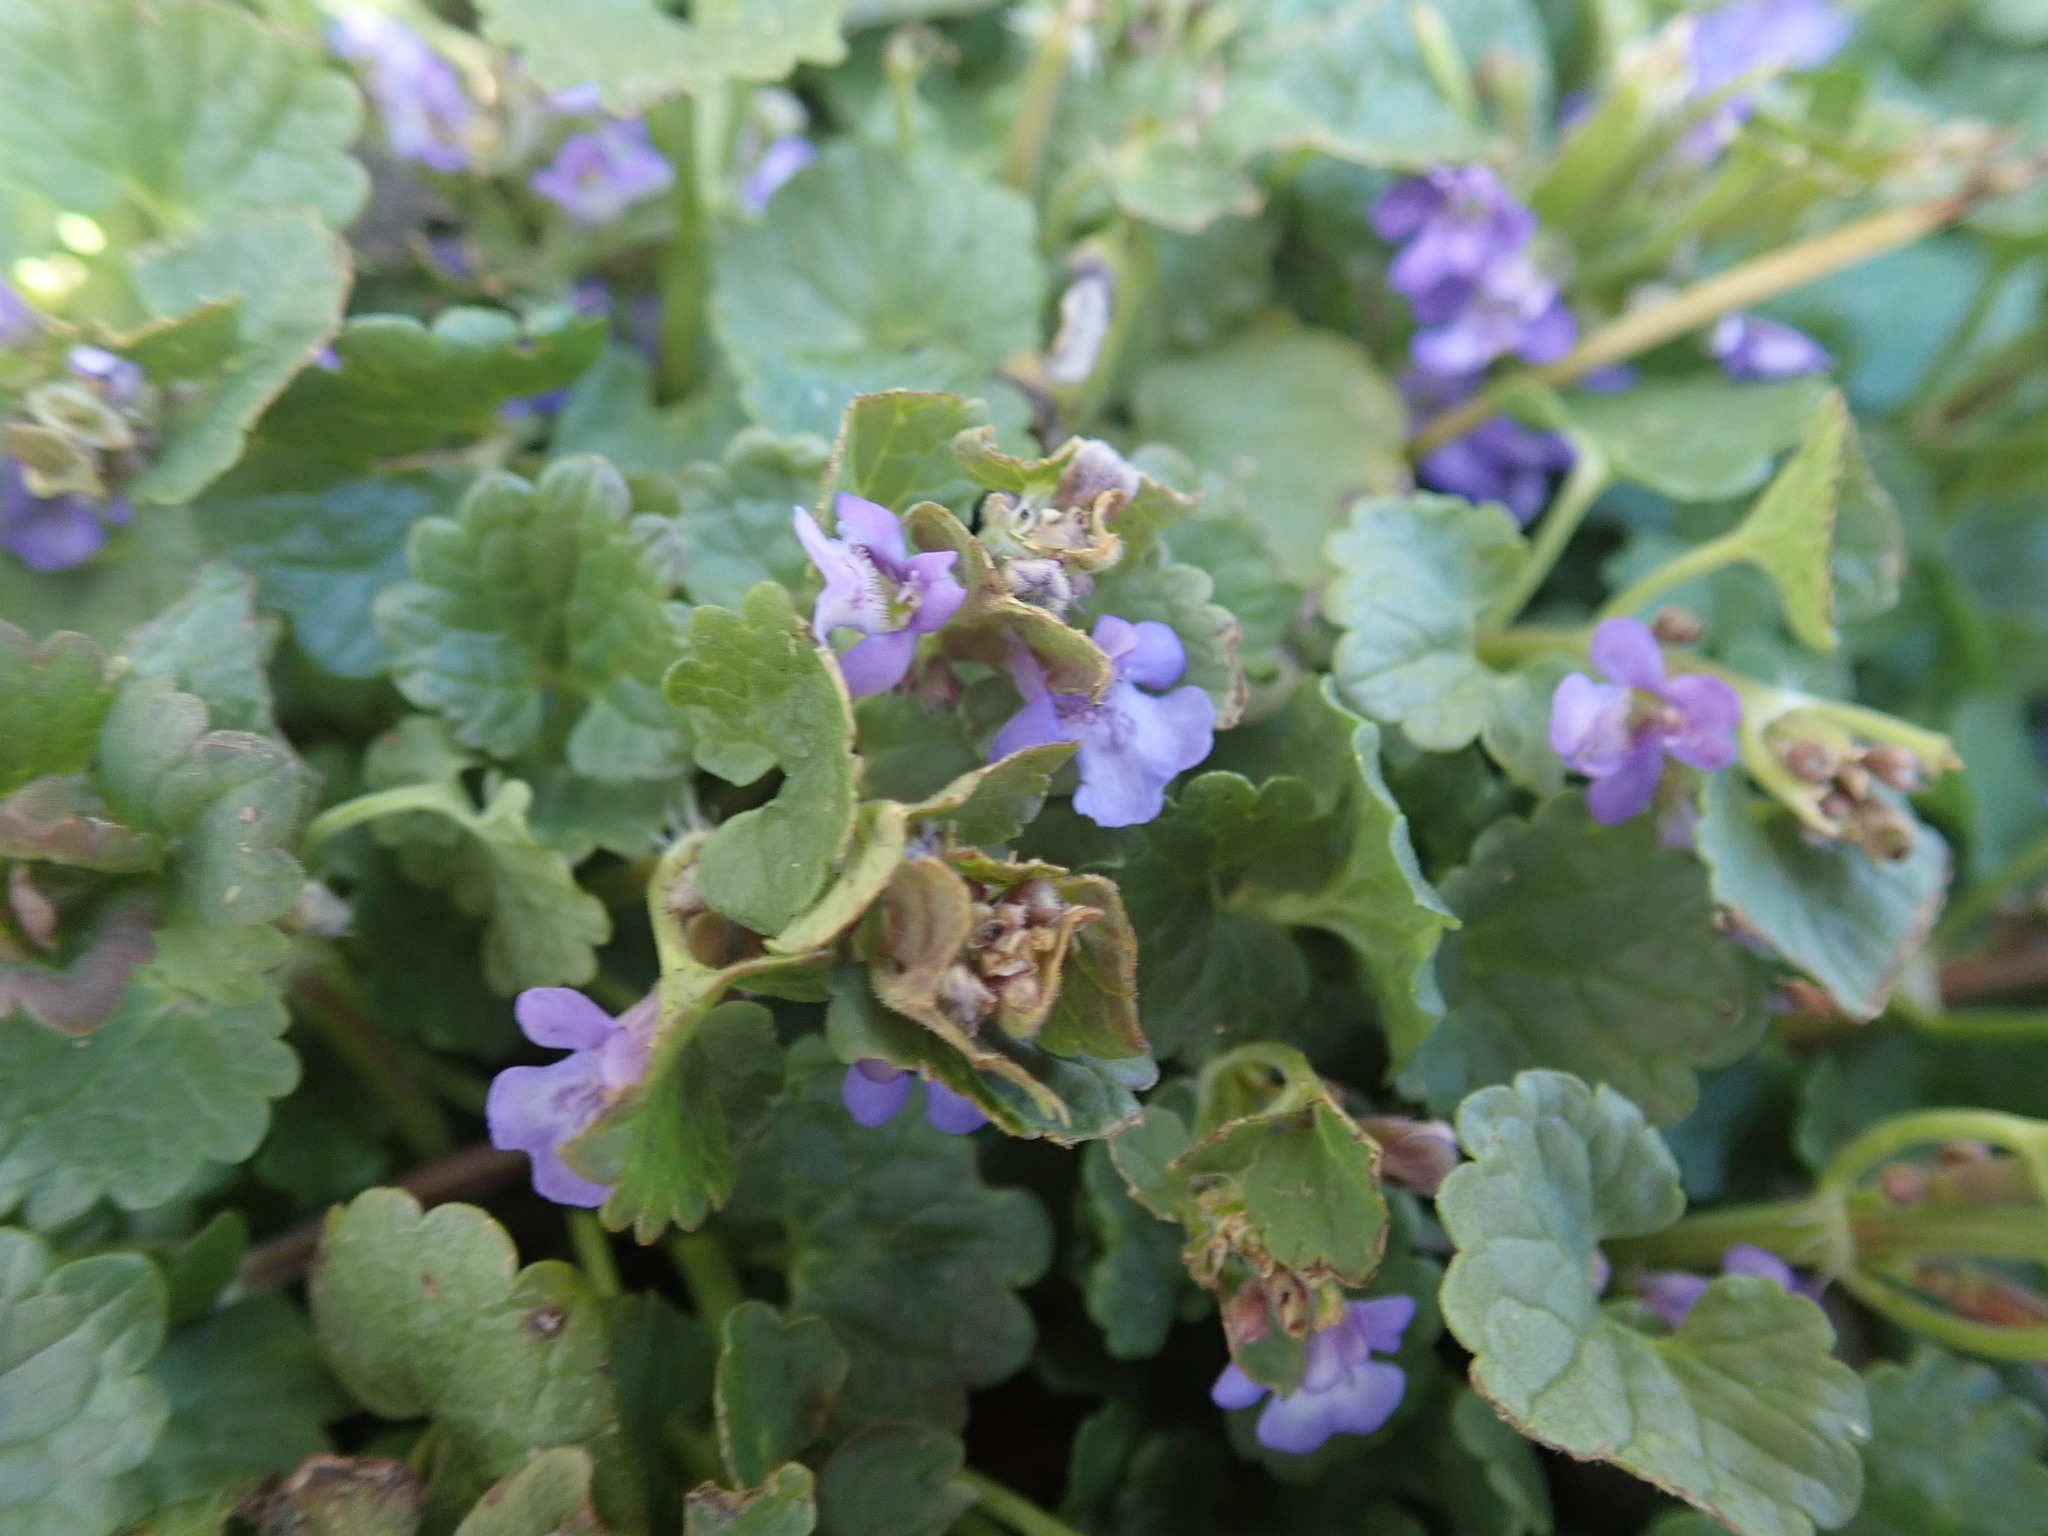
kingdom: Plantae
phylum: Tracheophyta
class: Magnoliopsida
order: Lamiales
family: Lamiaceae
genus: Glechoma
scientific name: Glechoma hederacea
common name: Ground ivy
